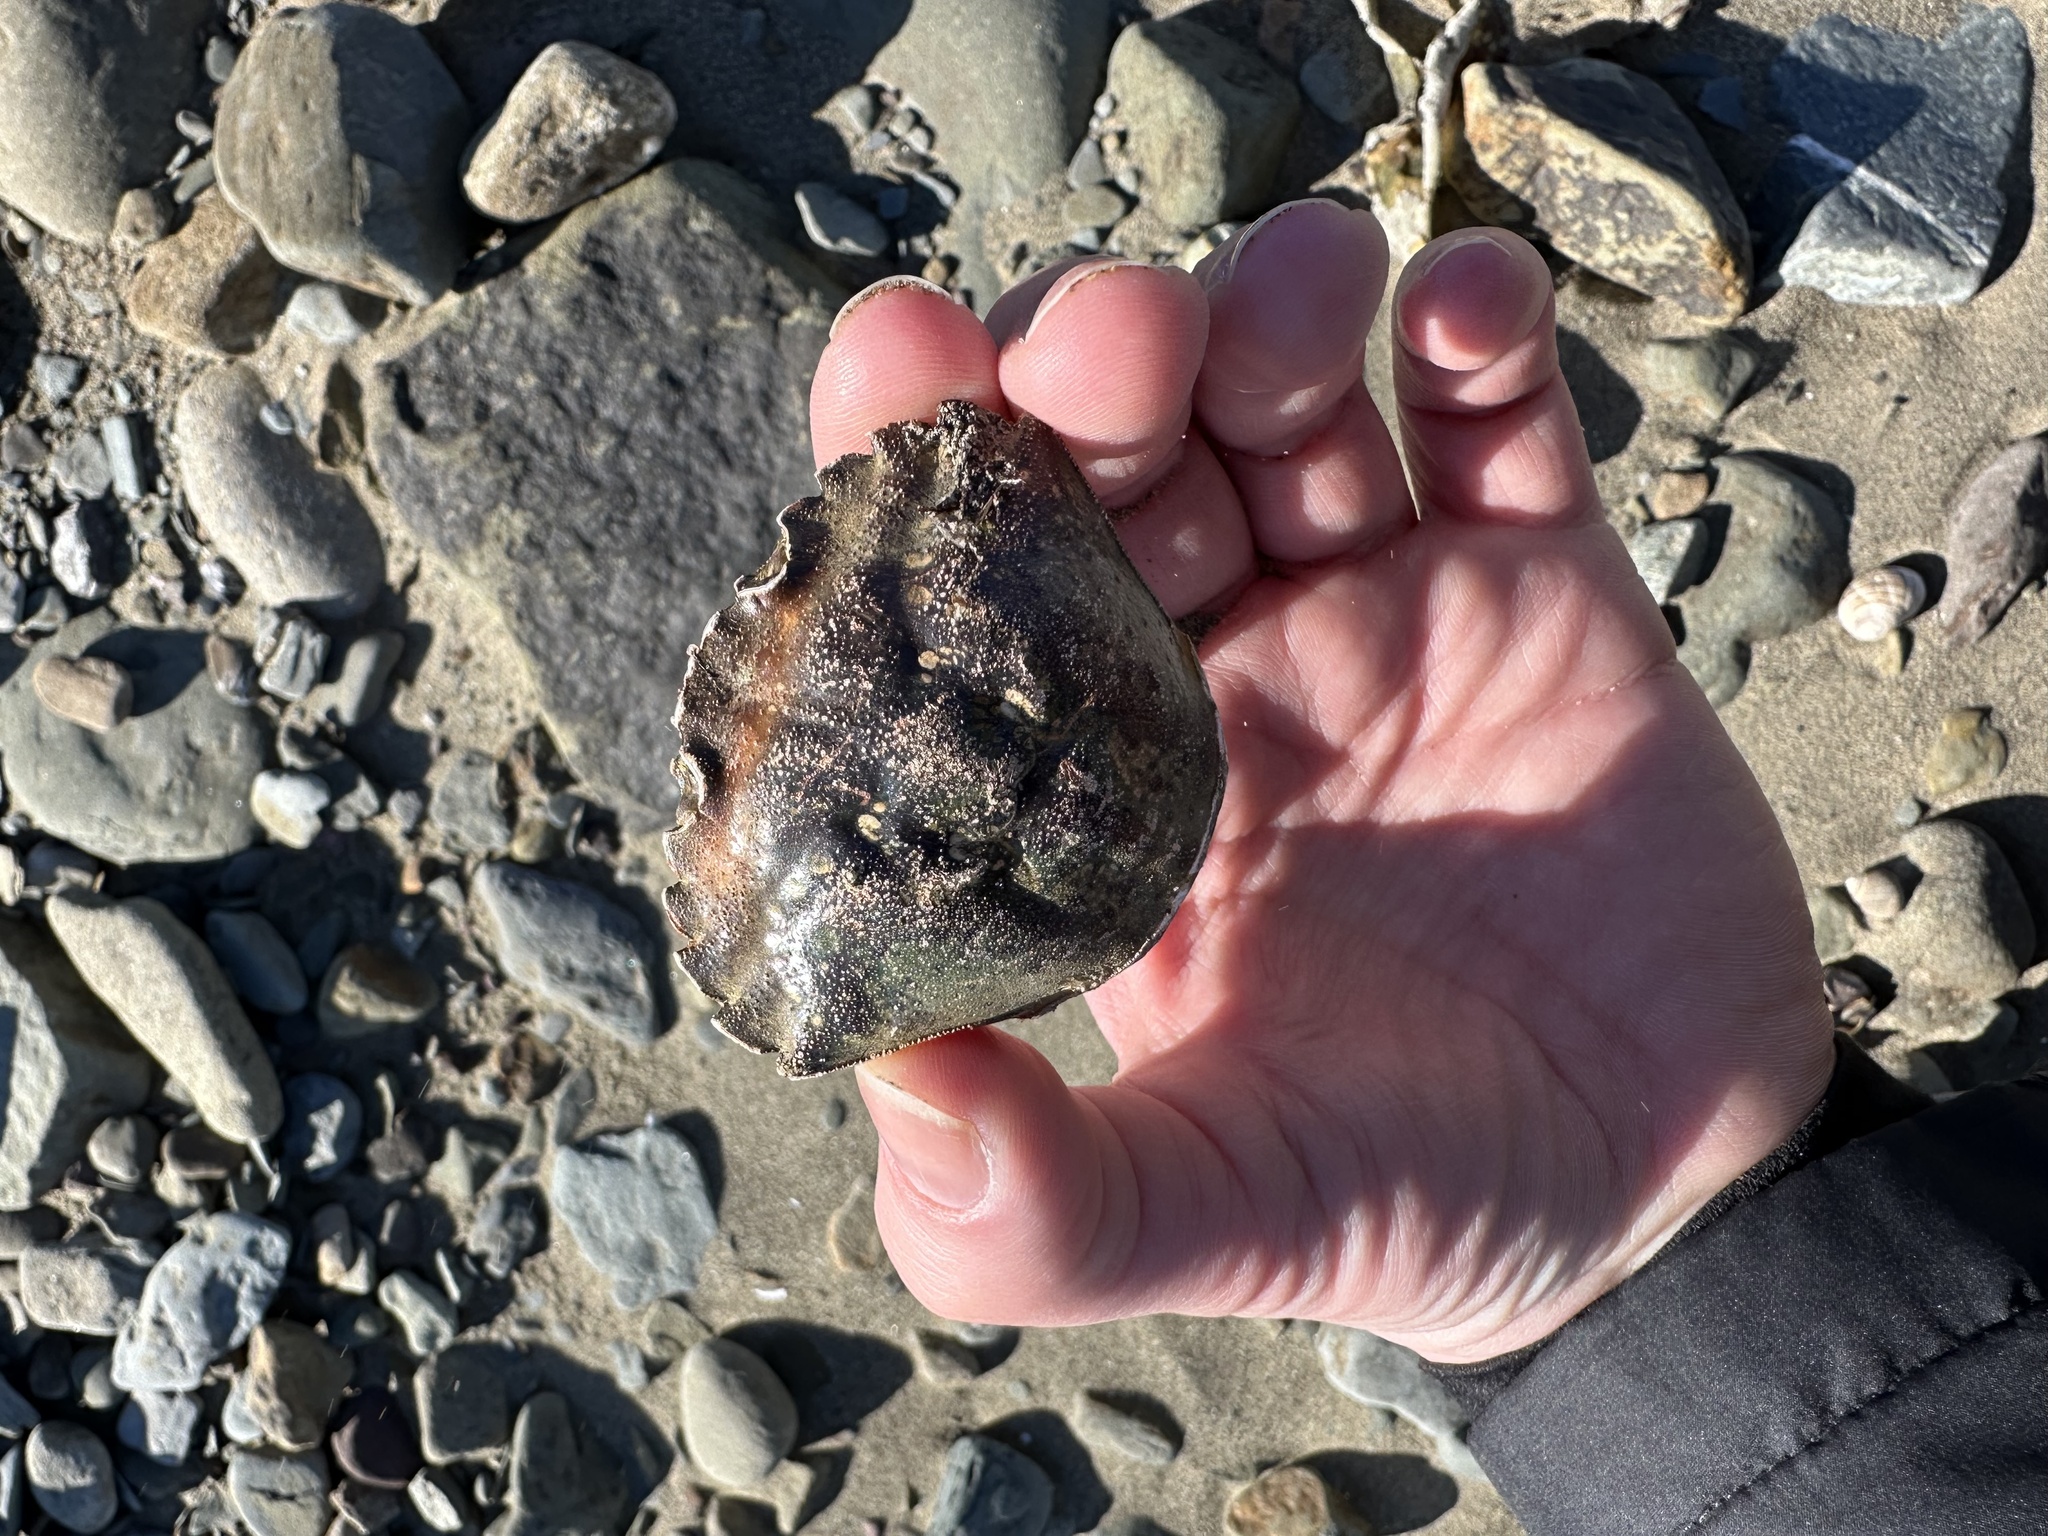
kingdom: Animalia
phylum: Arthropoda
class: Malacostraca
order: Decapoda
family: Carcinidae
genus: Carcinus
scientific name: Carcinus maenas
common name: European green crab
